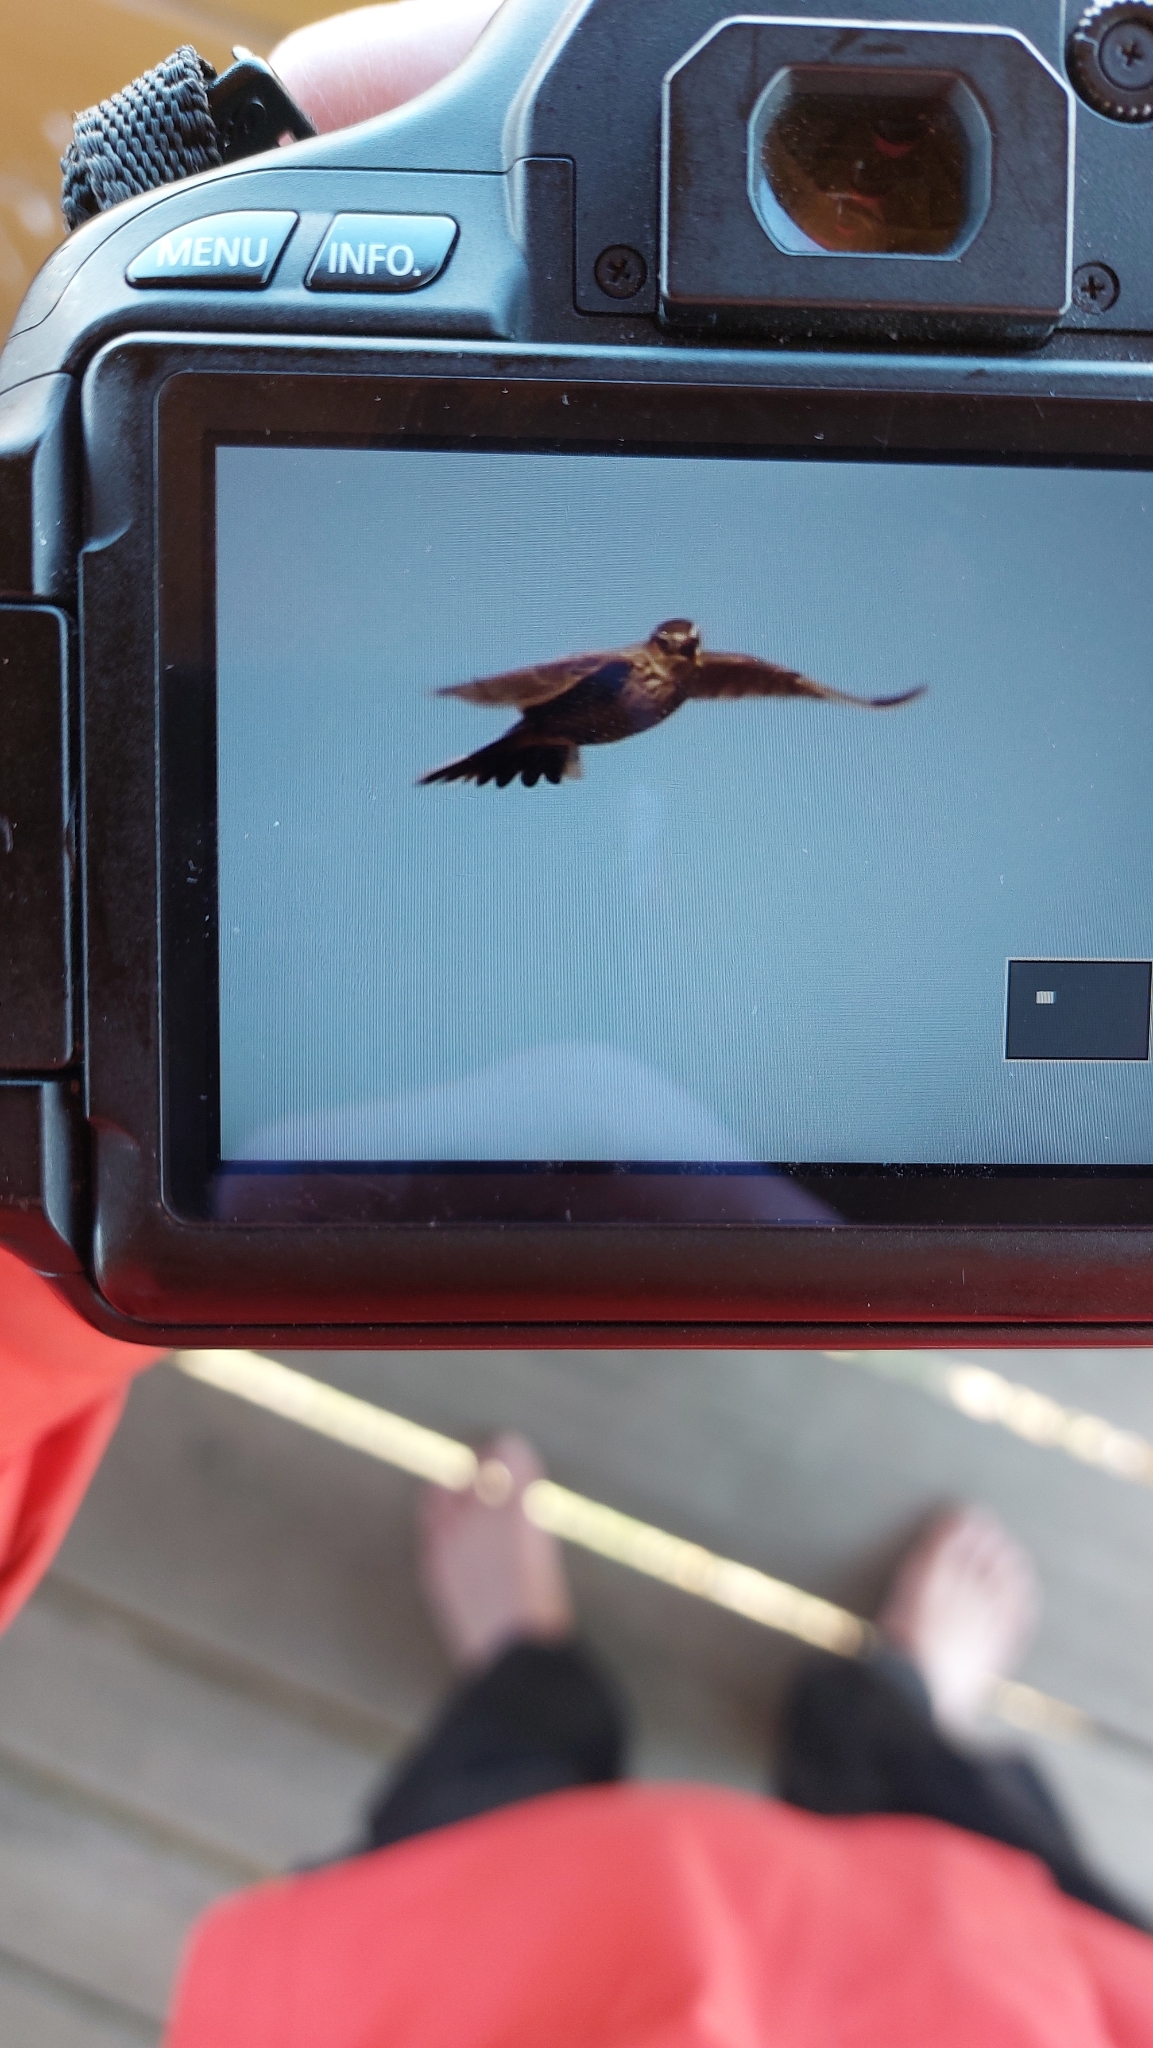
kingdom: Animalia
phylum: Chordata
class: Aves
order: Passeriformes
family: Alaudidae
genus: Alauda
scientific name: Alauda arvensis
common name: Eurasian skylark
